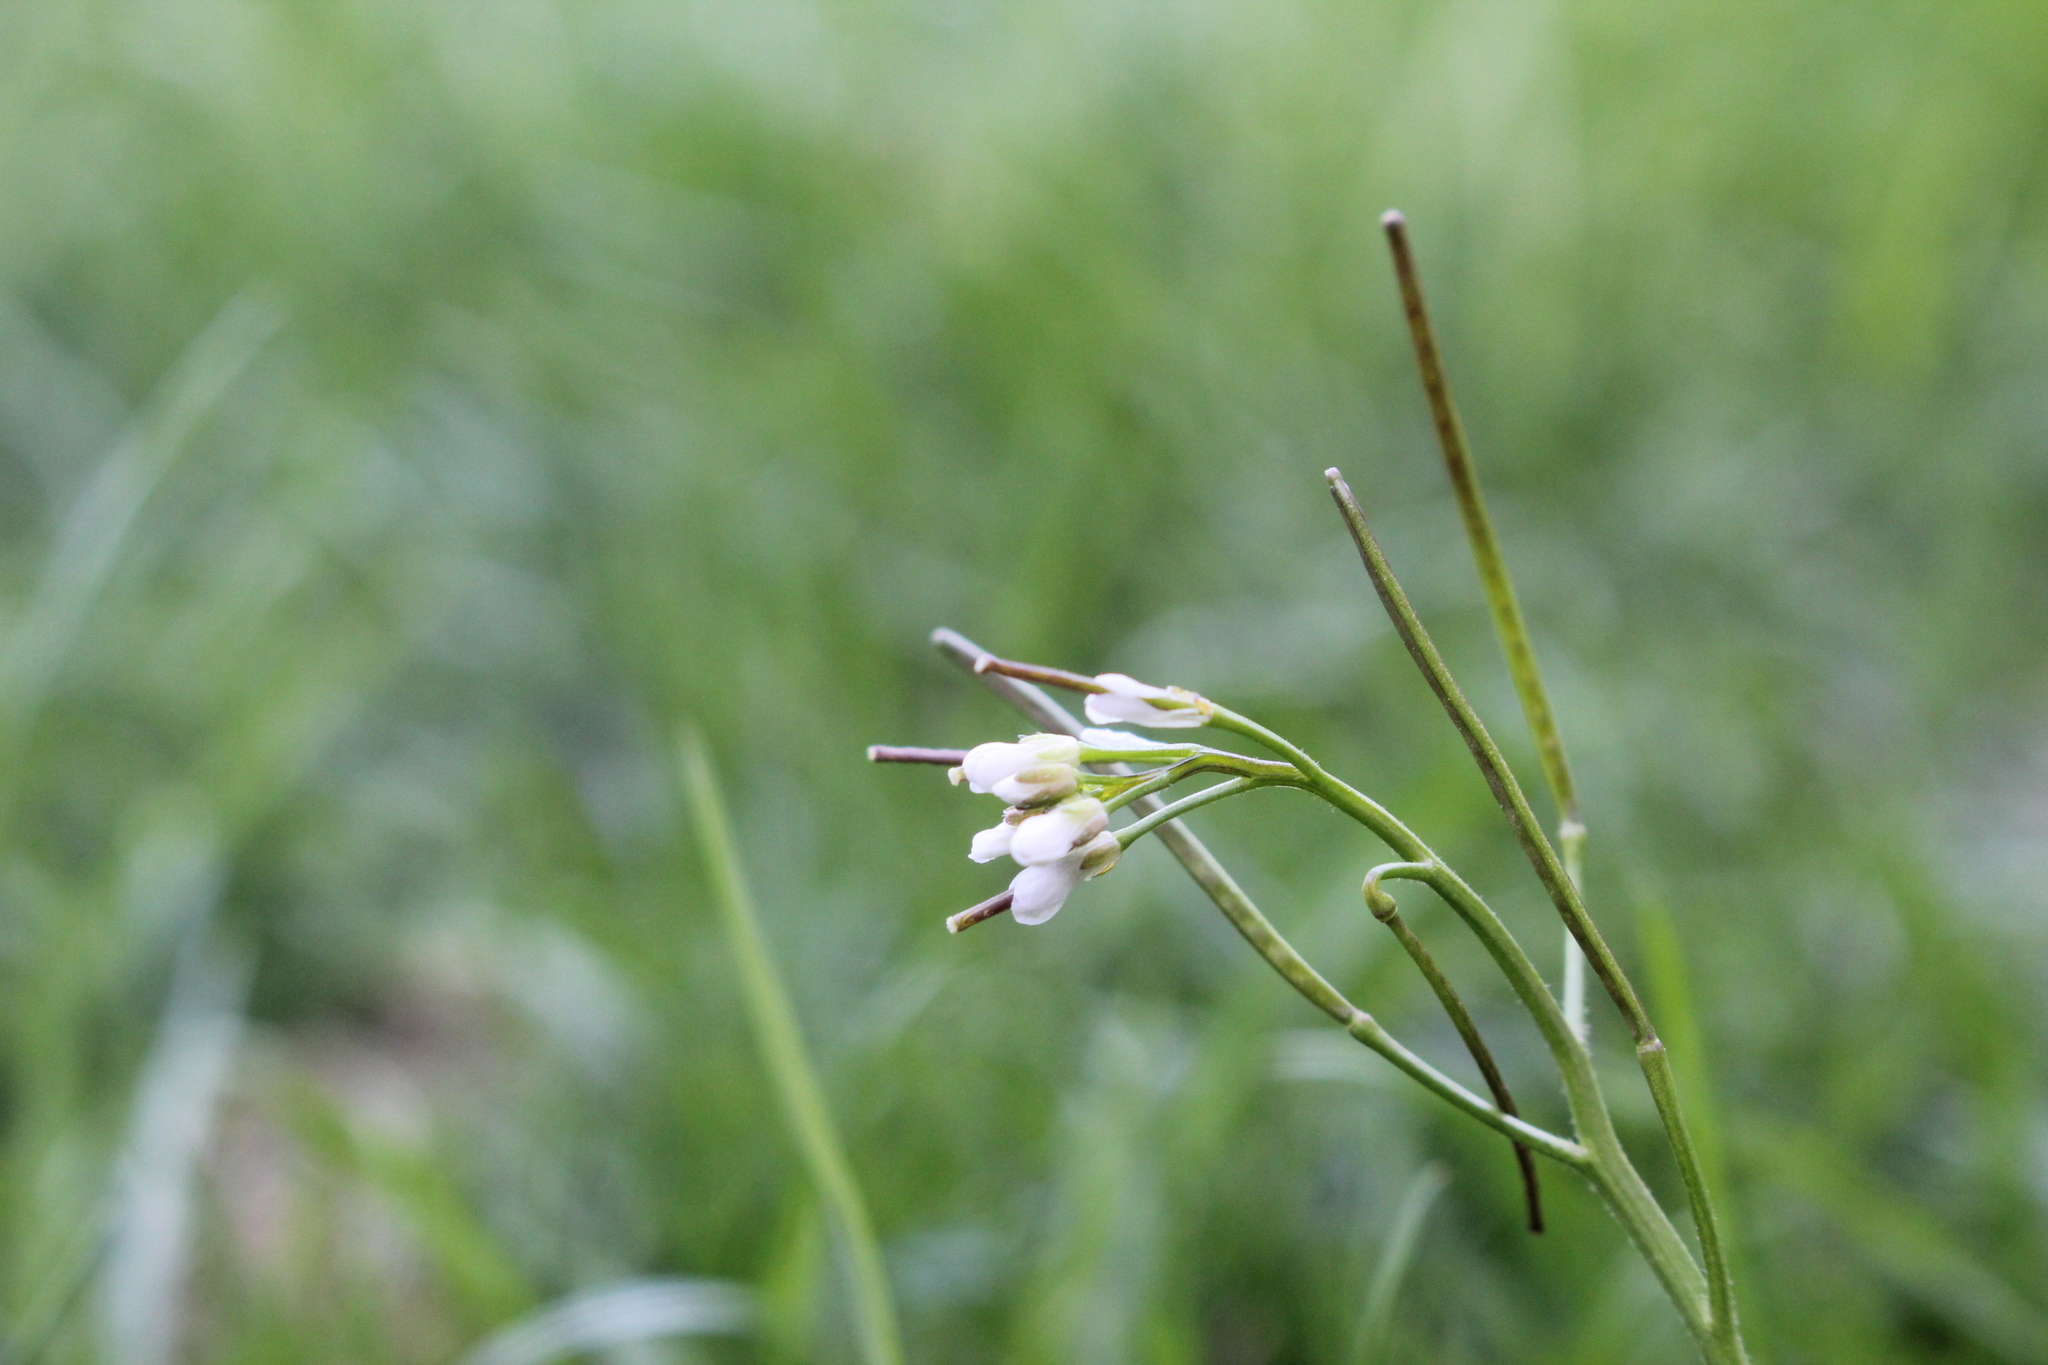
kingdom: Plantae
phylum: Tracheophyta
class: Magnoliopsida
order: Brassicales
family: Brassicaceae
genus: Cardamine
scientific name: Cardamine hirsuta
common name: Hairy bittercress
